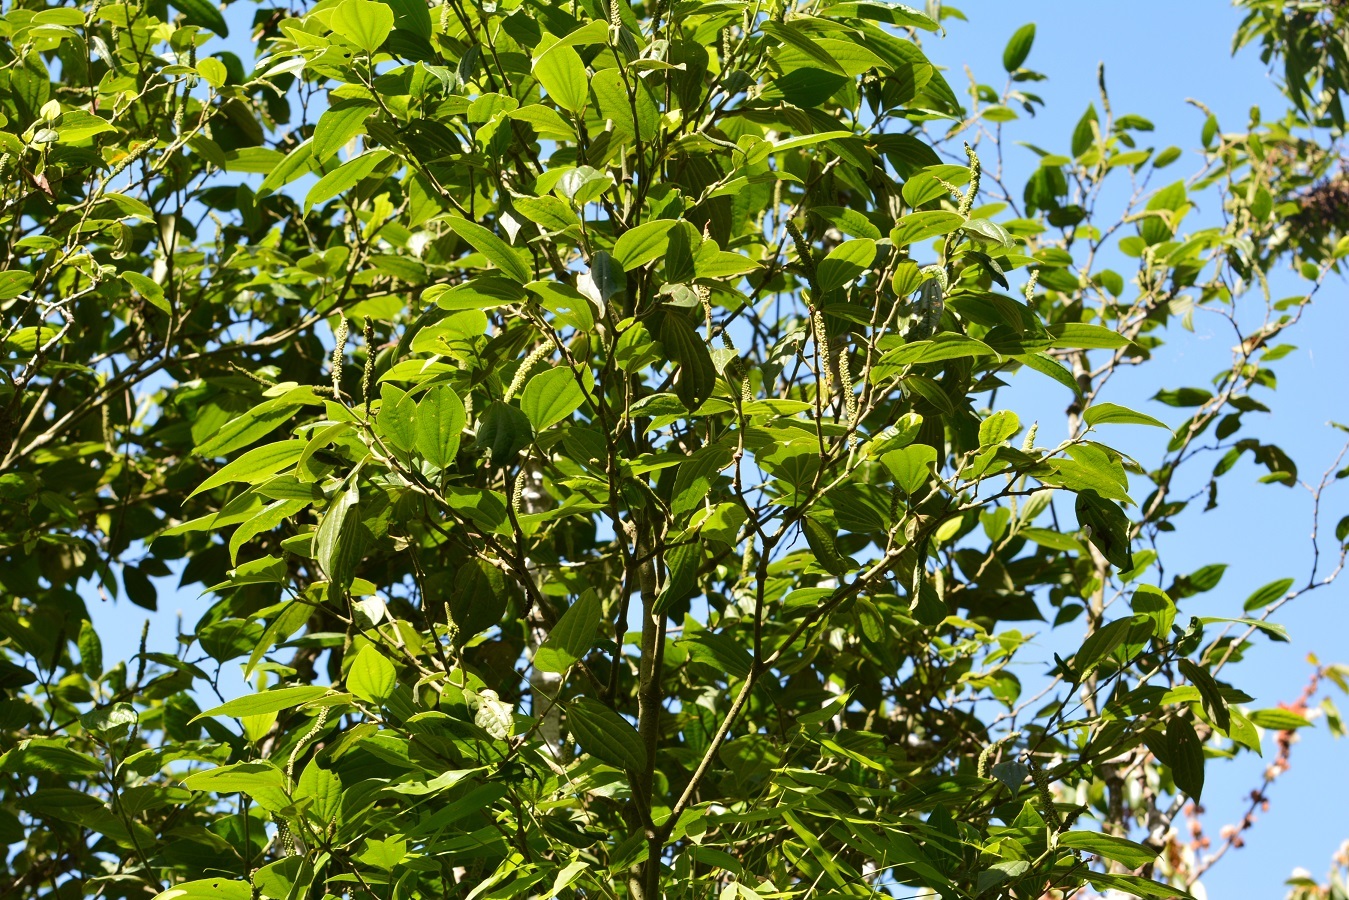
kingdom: Plantae
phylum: Tracheophyta
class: Magnoliopsida
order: Piperales
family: Piperaceae
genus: Piper
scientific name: Piper amalago
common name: Pepper-elder
